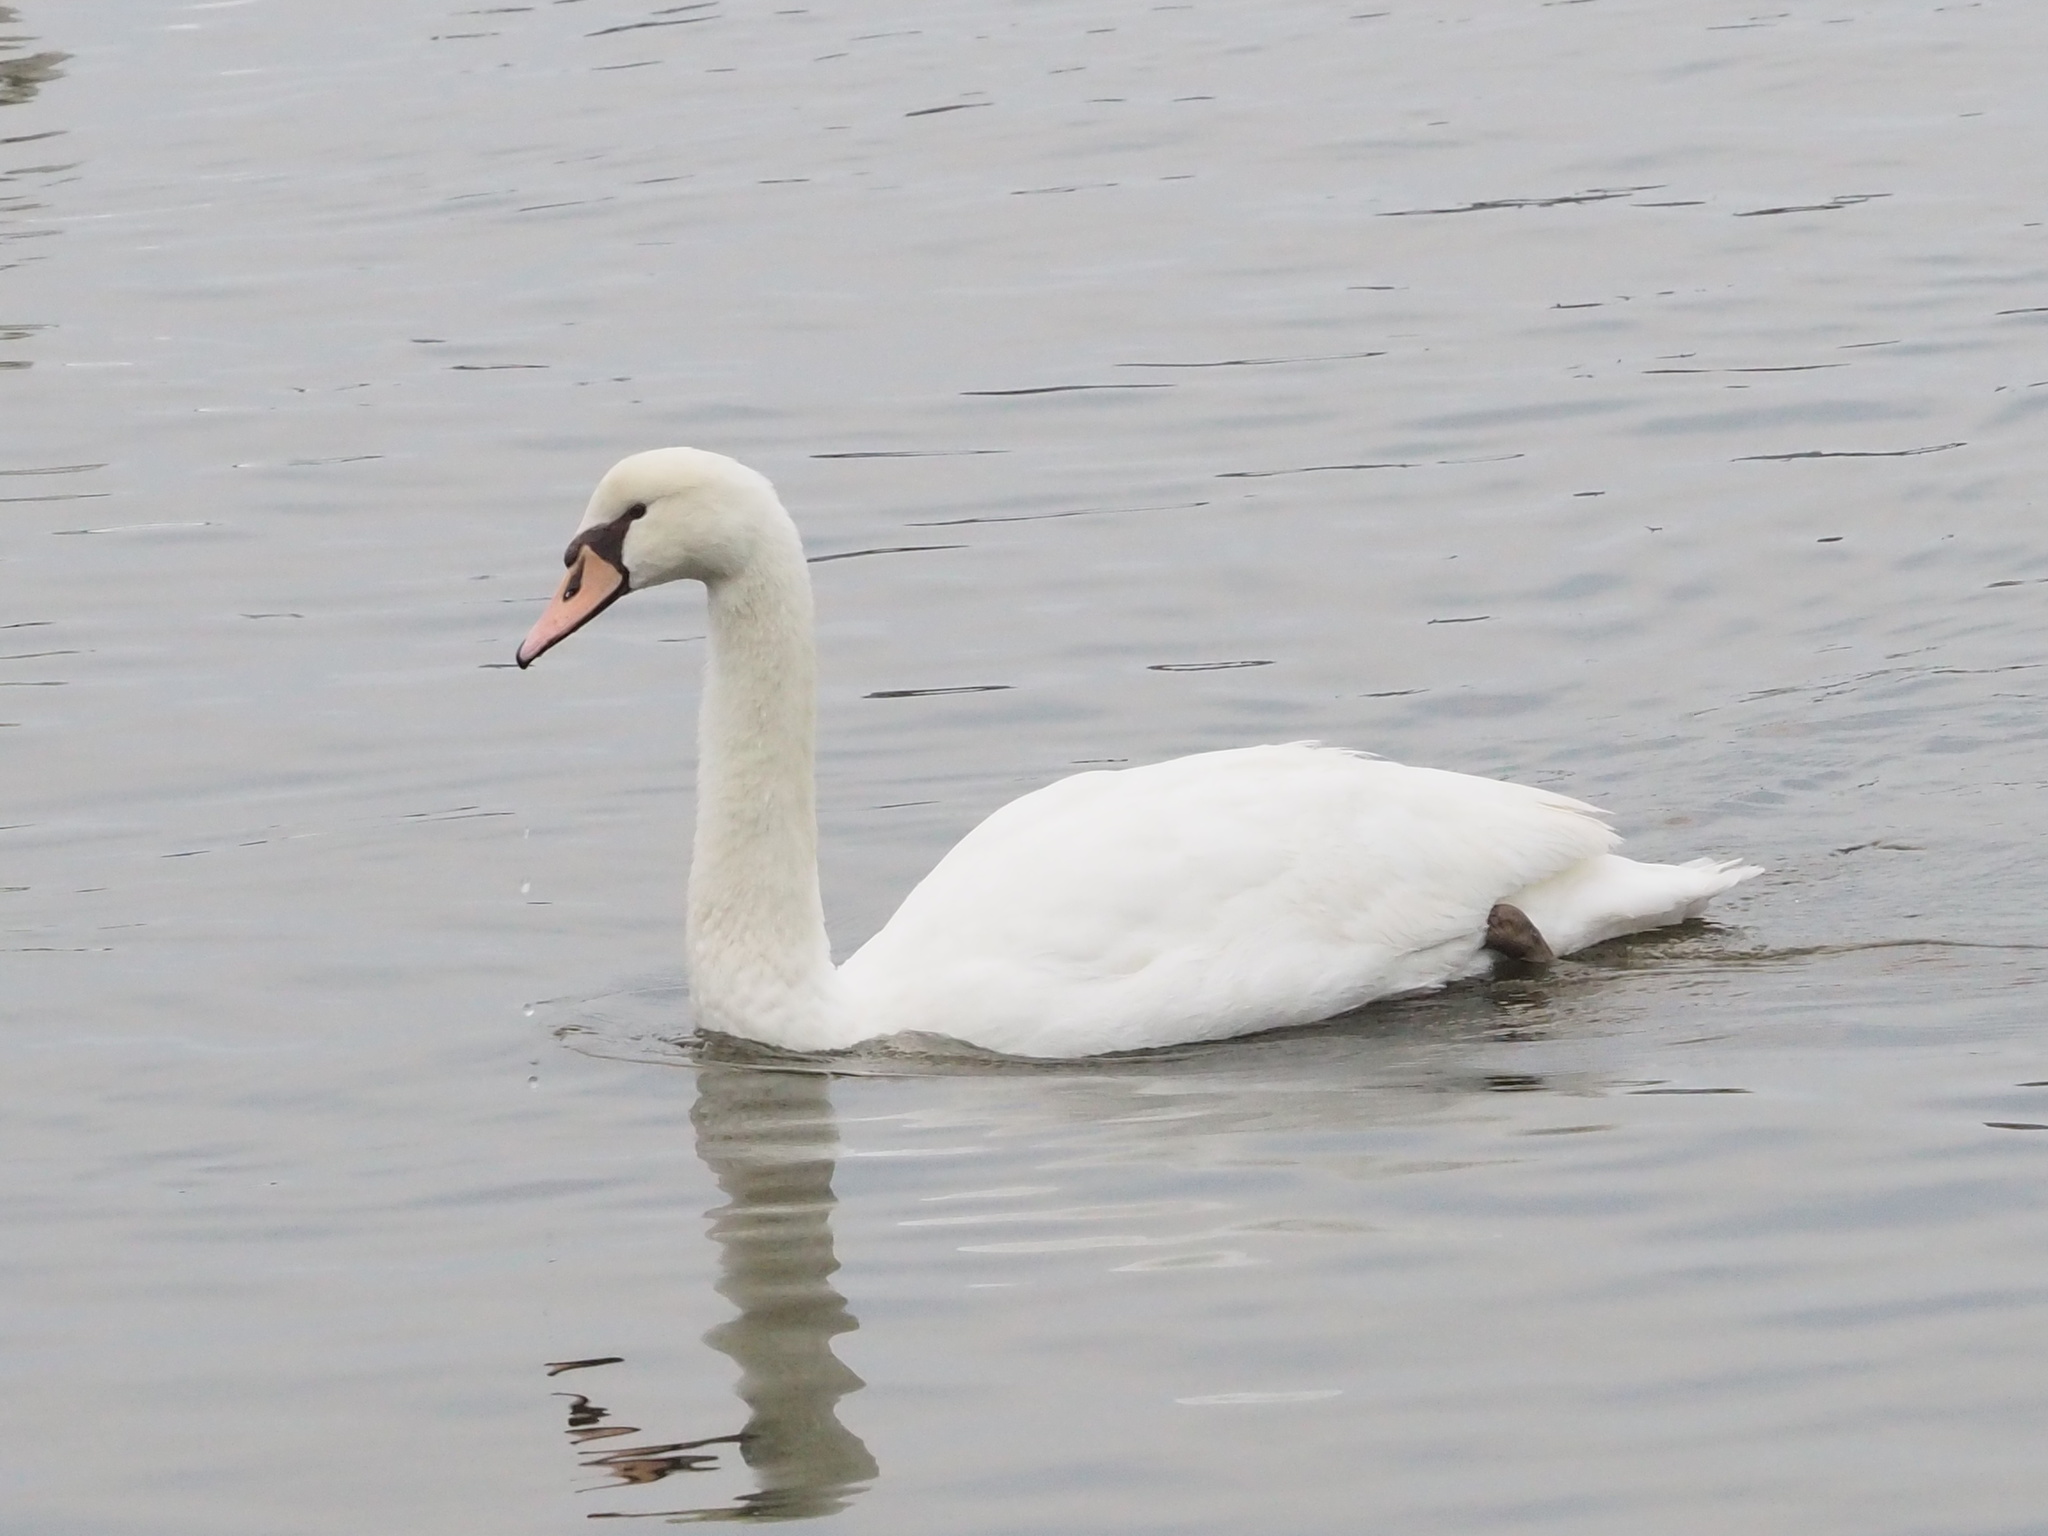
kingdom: Animalia
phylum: Chordata
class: Aves
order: Anseriformes
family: Anatidae
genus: Cygnus
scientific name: Cygnus olor
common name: Mute swan
